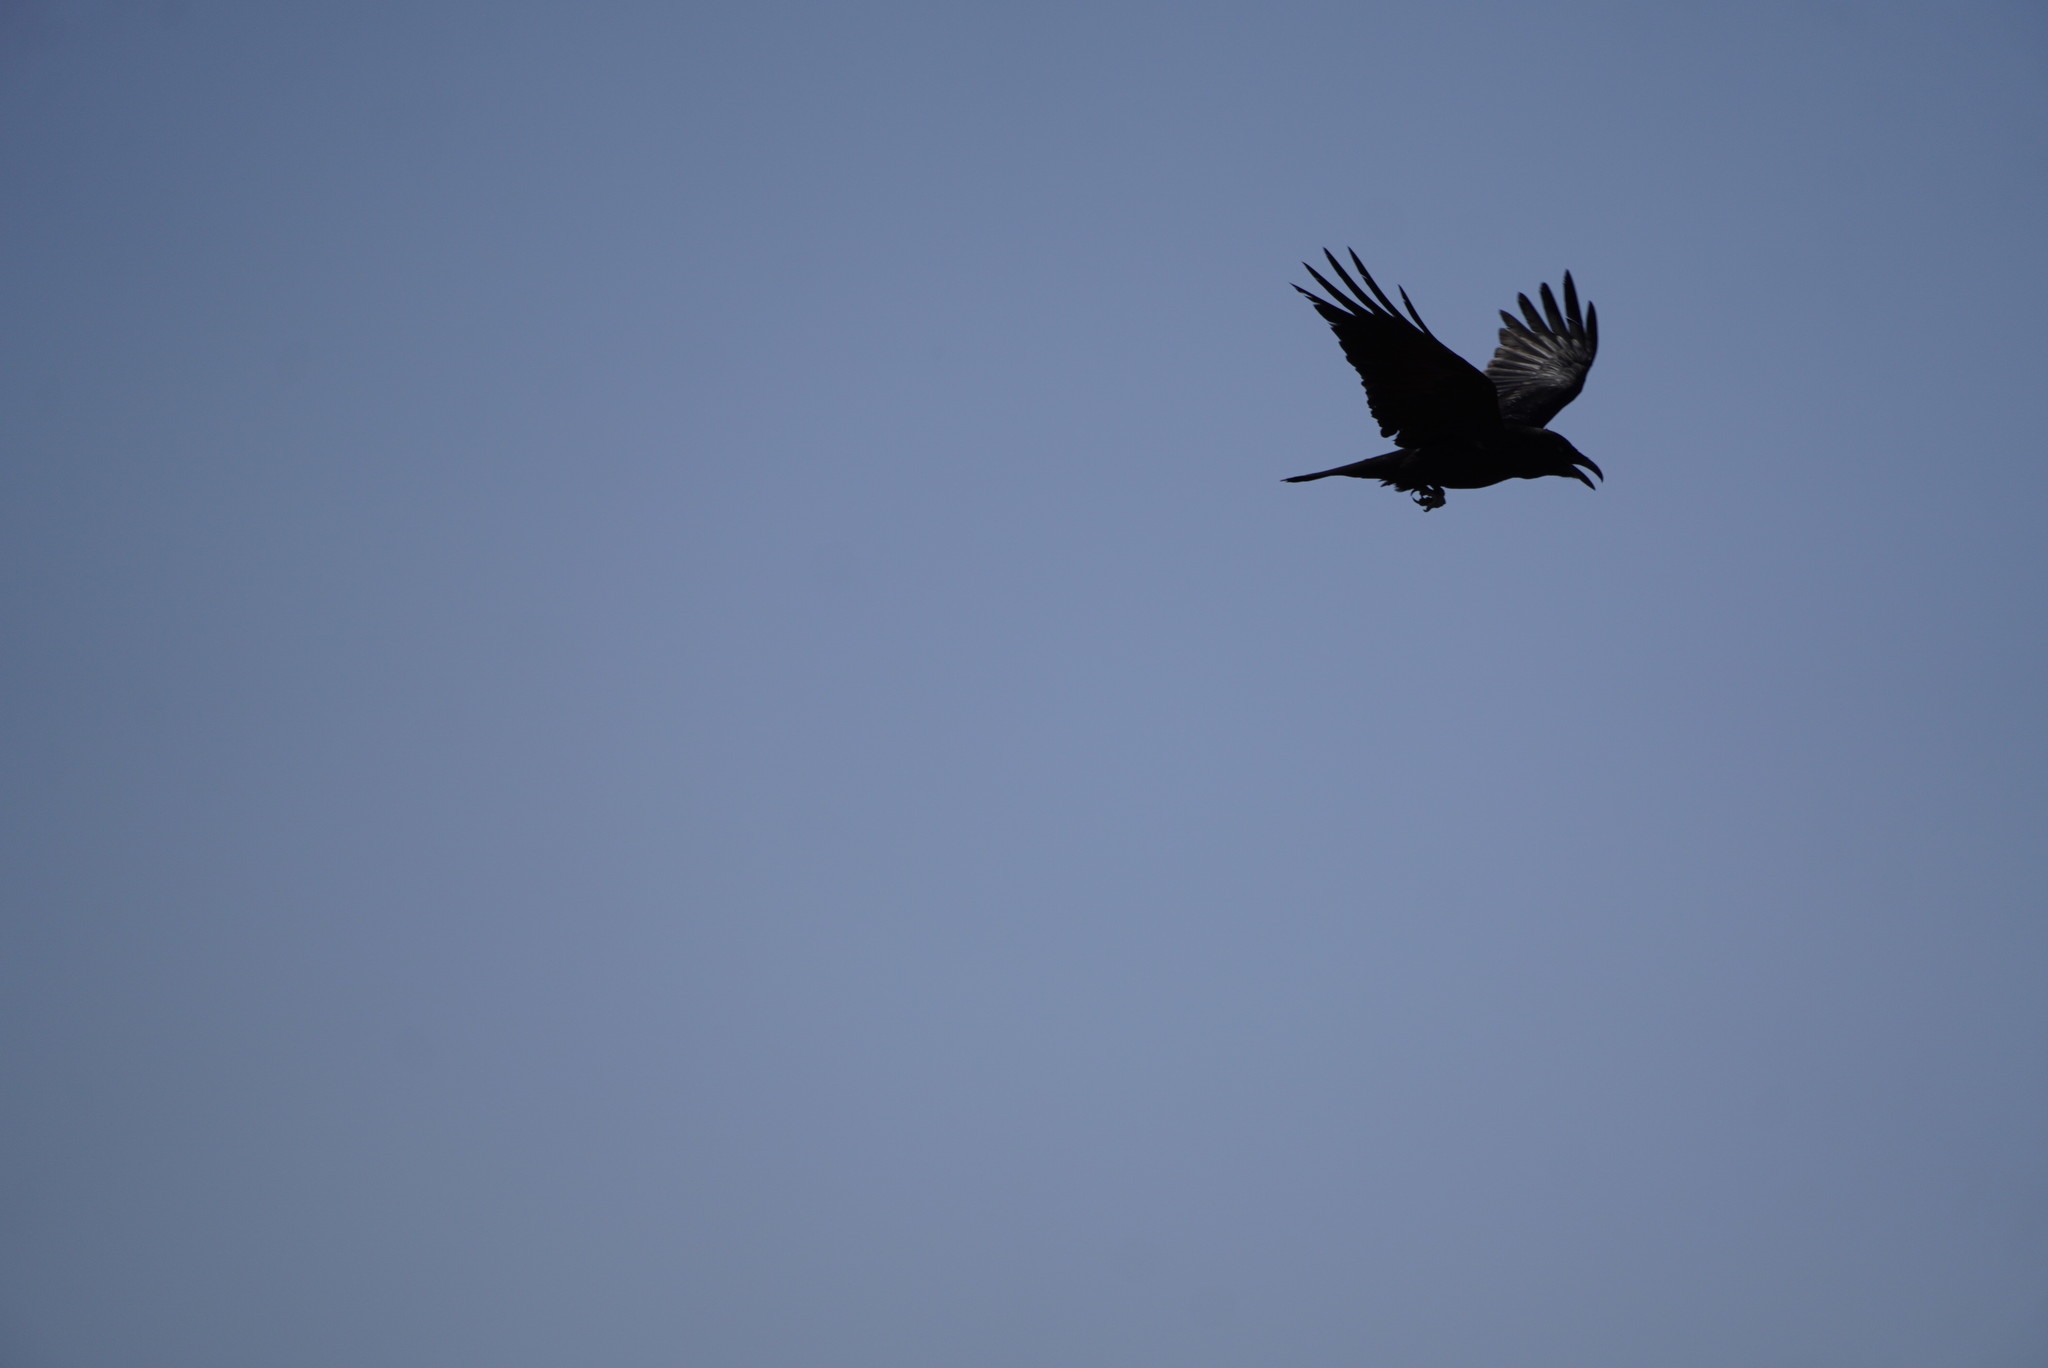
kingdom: Animalia
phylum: Chordata
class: Aves
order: Passeriformes
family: Corvidae
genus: Corvus
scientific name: Corvus corax
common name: Common raven
